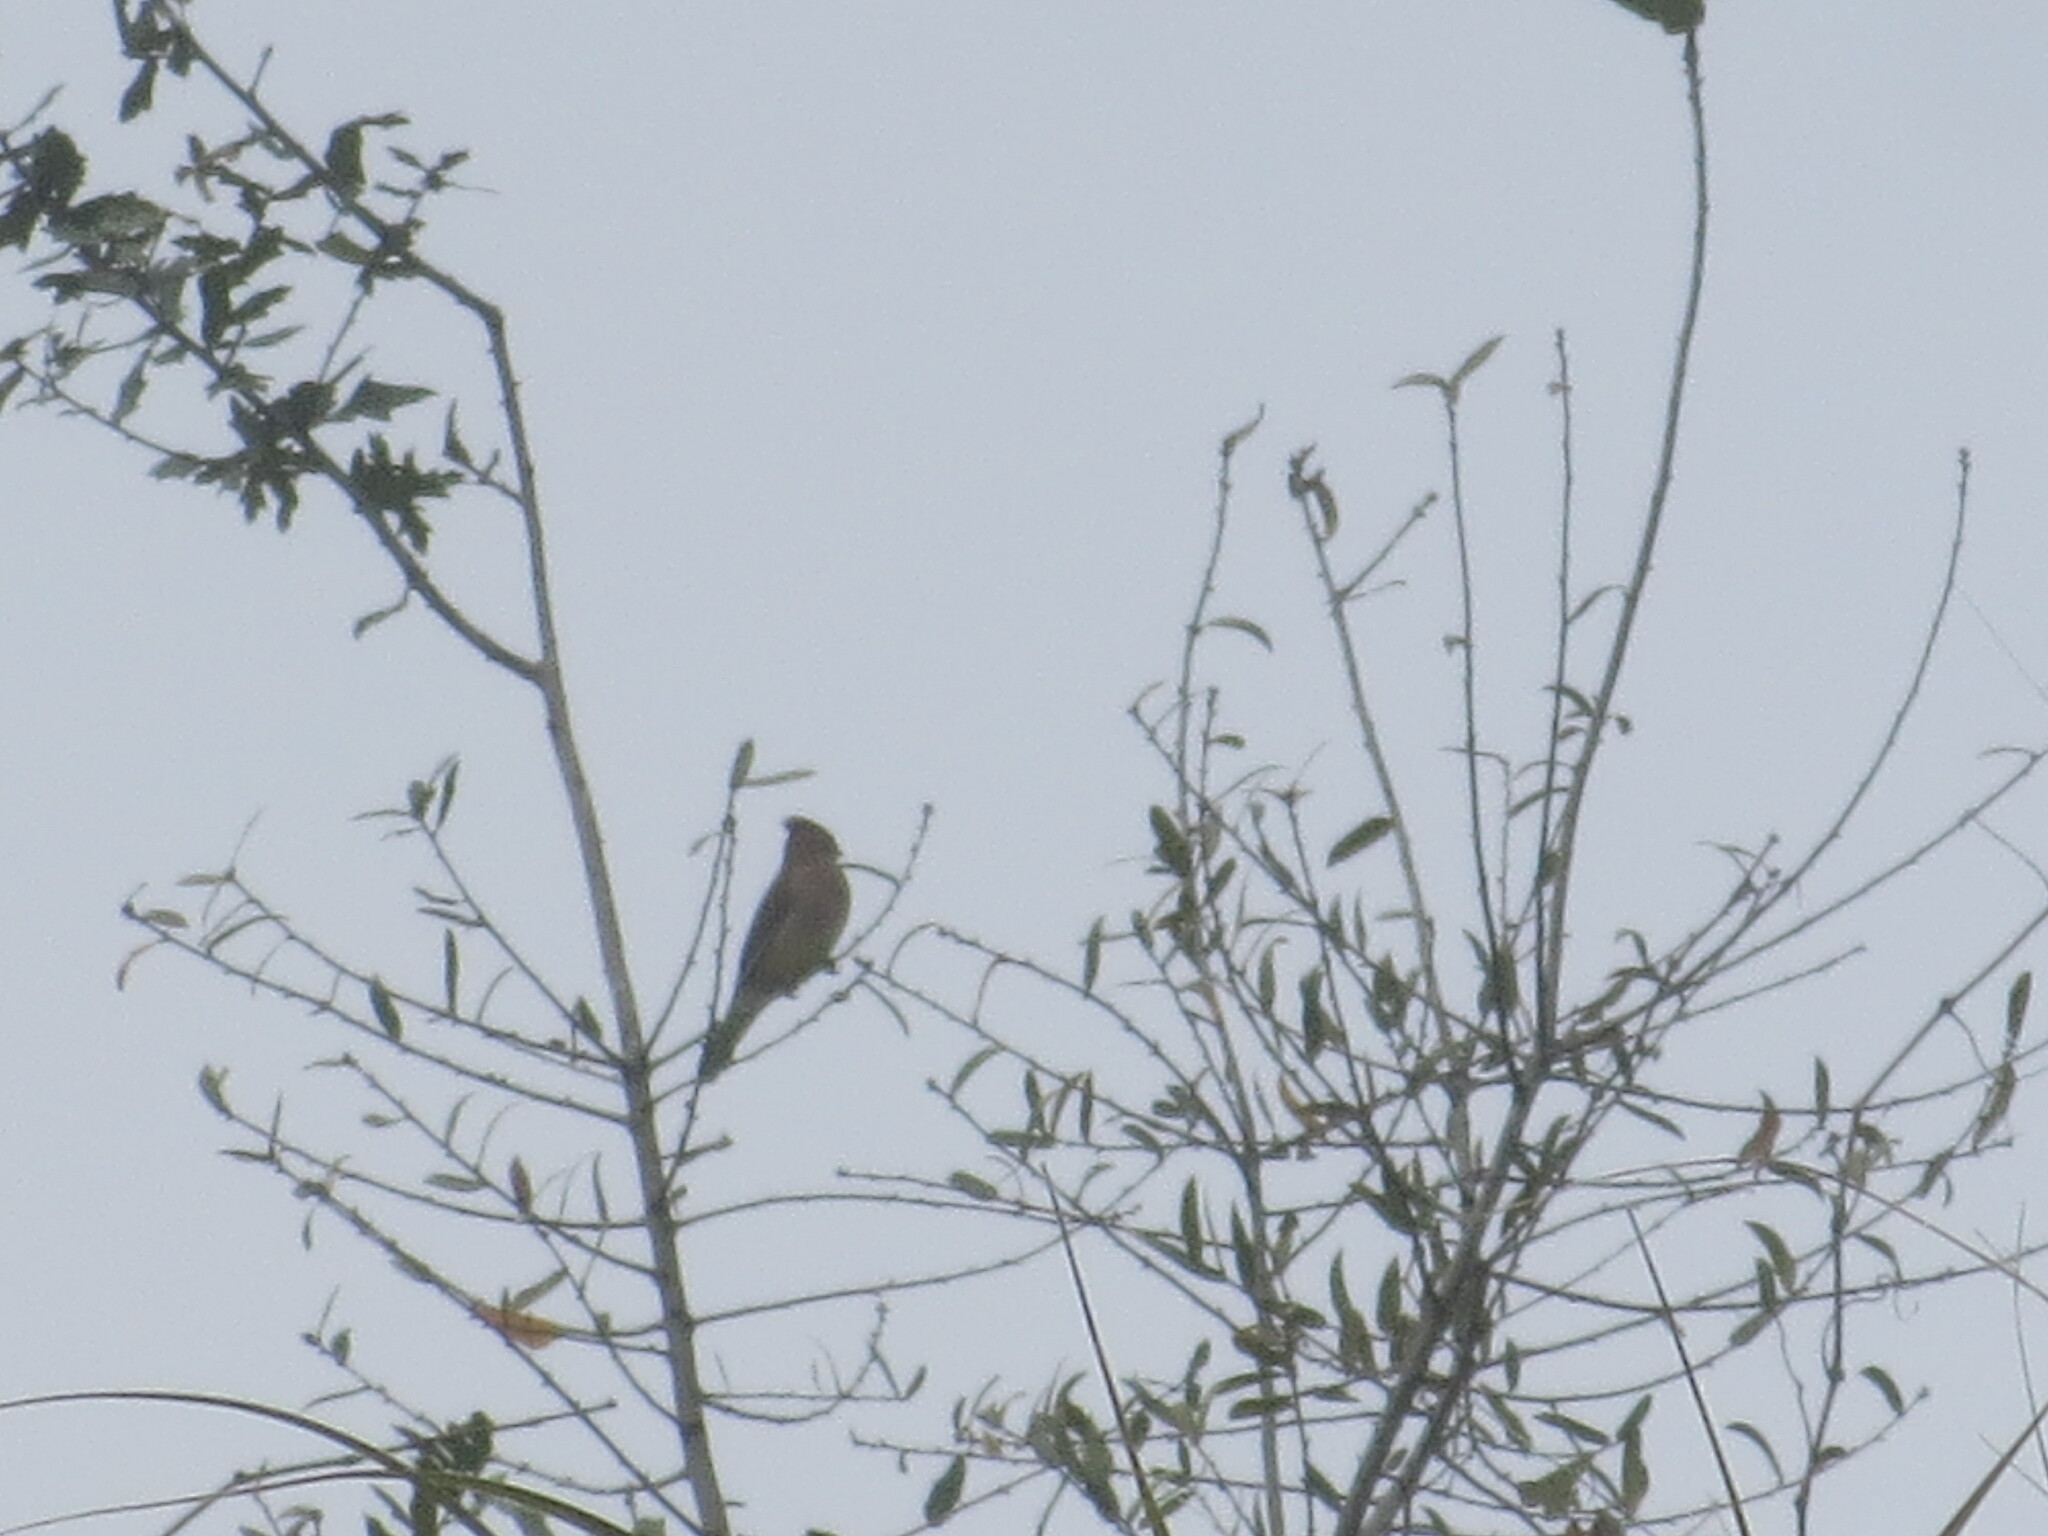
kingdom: Animalia
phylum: Chordata
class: Aves
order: Passeriformes
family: Bombycillidae
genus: Bombycilla
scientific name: Bombycilla cedrorum
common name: Cedar waxwing
